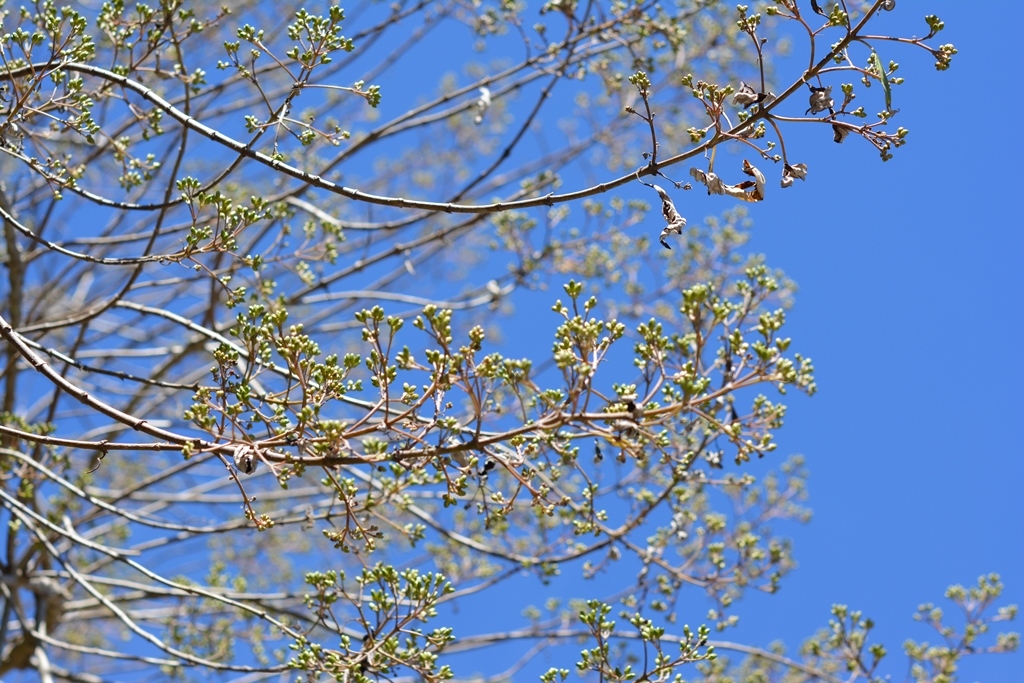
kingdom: Plantae
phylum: Tracheophyta
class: Magnoliopsida
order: Asterales
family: Asteraceae
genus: Montanoa
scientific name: Montanoa tomentosa
